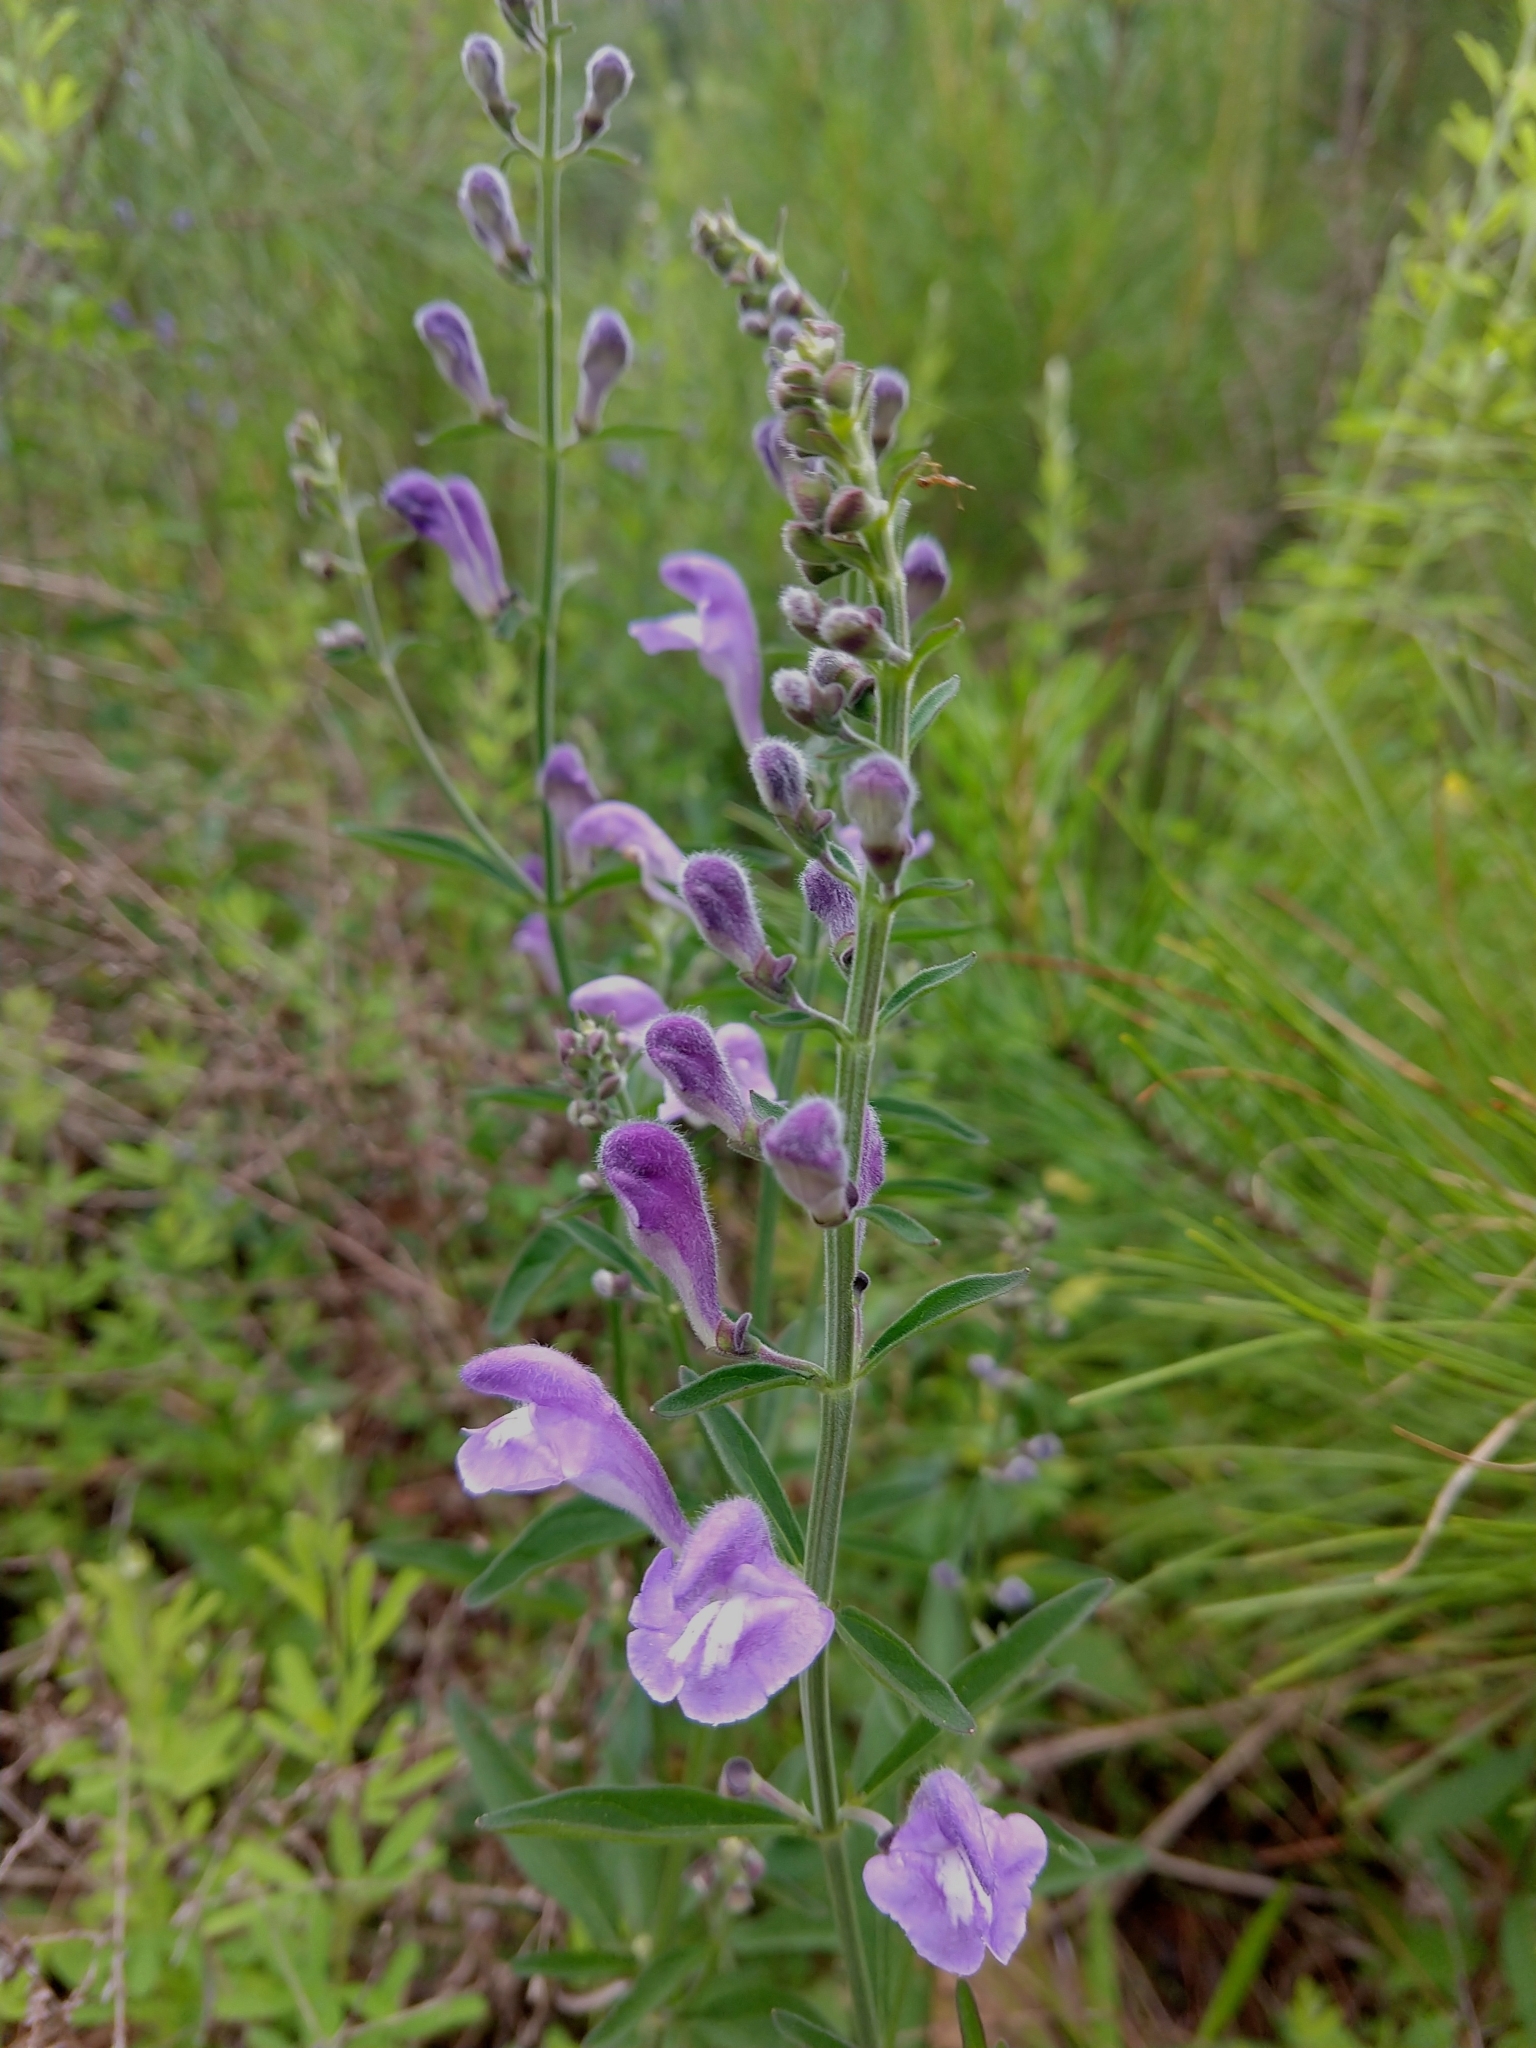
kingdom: Plantae
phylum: Tracheophyta
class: Magnoliopsida
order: Lamiales
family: Lamiaceae
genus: Scutellaria
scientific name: Scutellaria integrifolia
